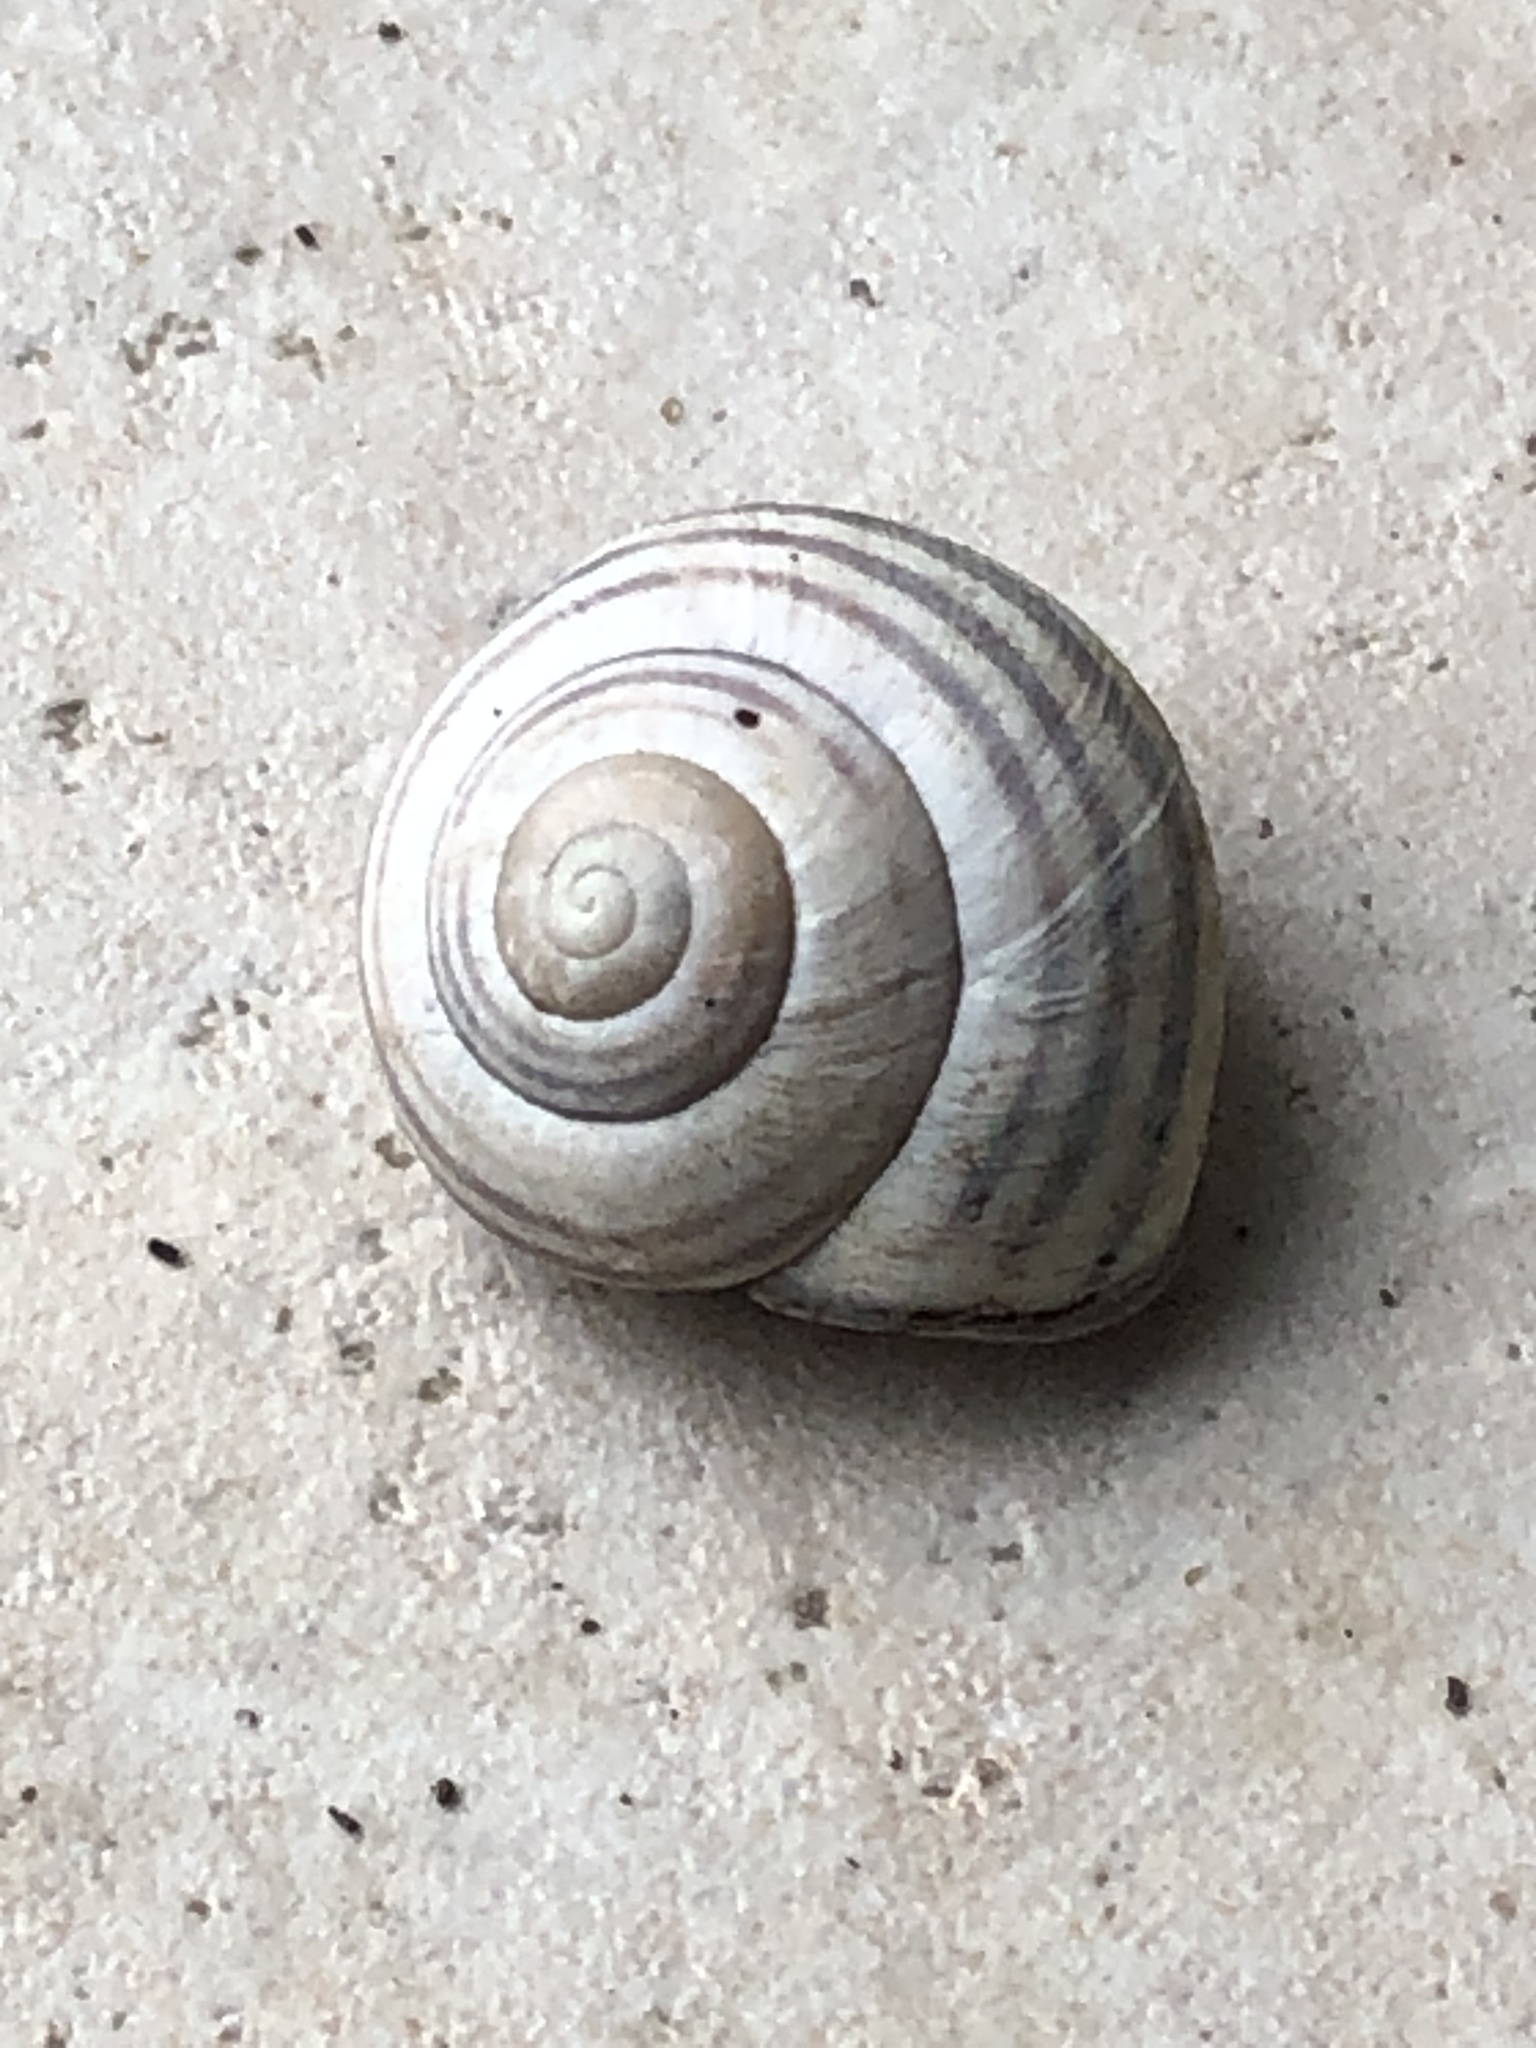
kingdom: Animalia
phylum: Mollusca
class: Gastropoda
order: Stylommatophora
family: Helicidae
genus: Cepaea
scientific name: Cepaea nemoralis
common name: Grovesnail
